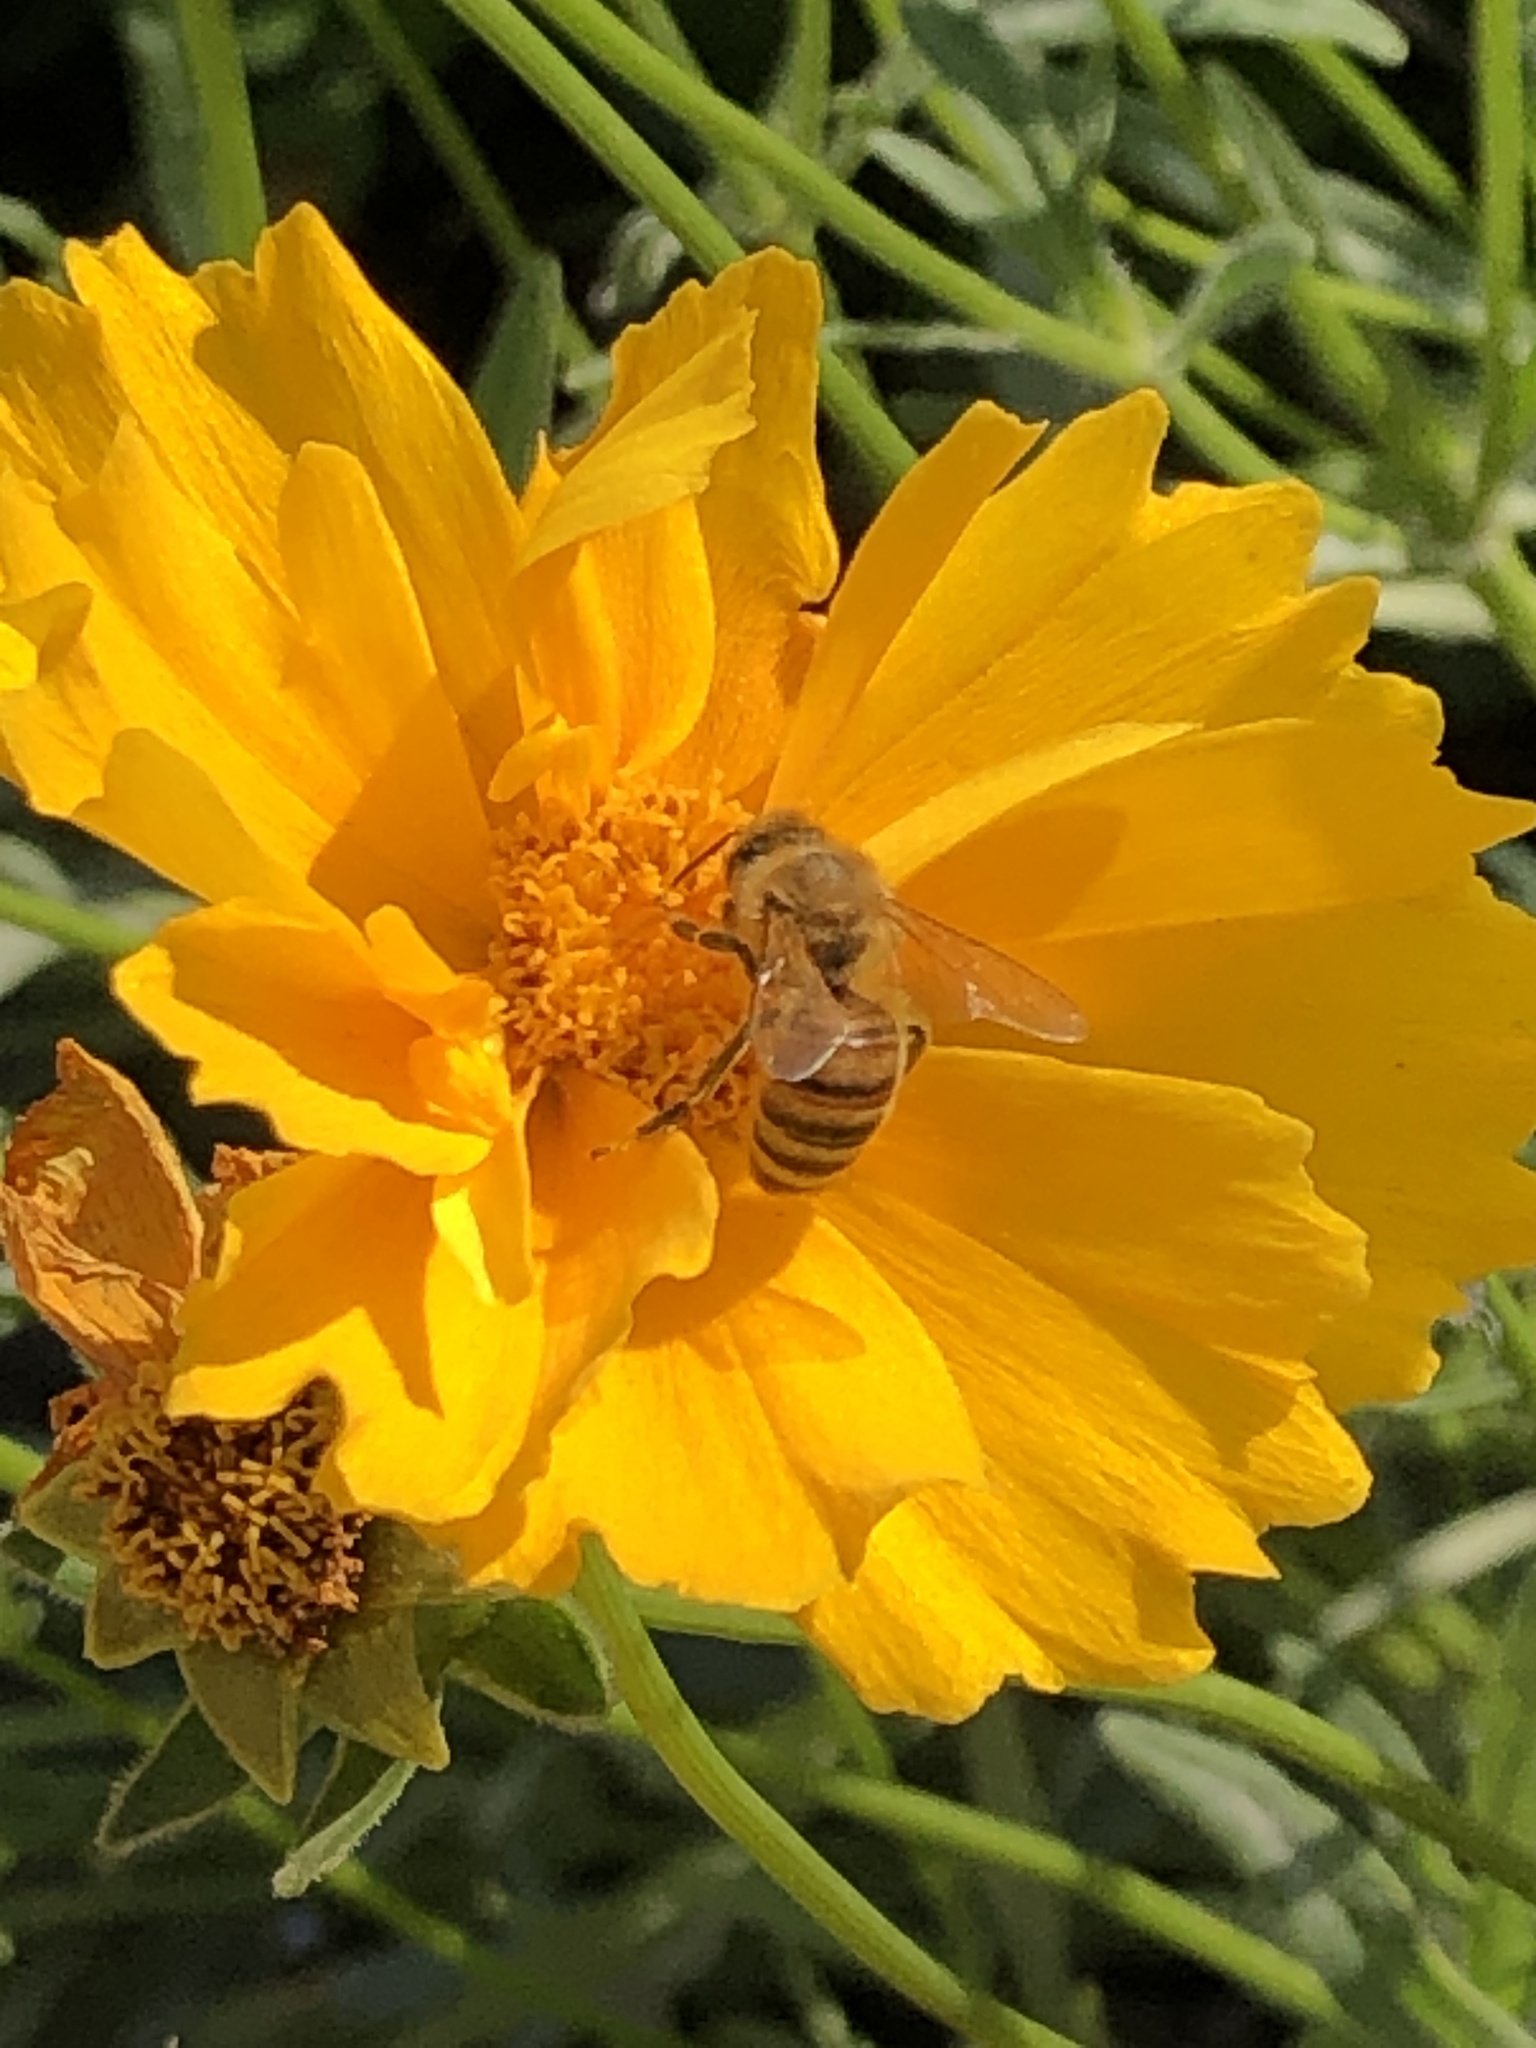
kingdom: Animalia
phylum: Arthropoda
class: Insecta
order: Hymenoptera
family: Apidae
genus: Apis
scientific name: Apis mellifera
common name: Honey bee
